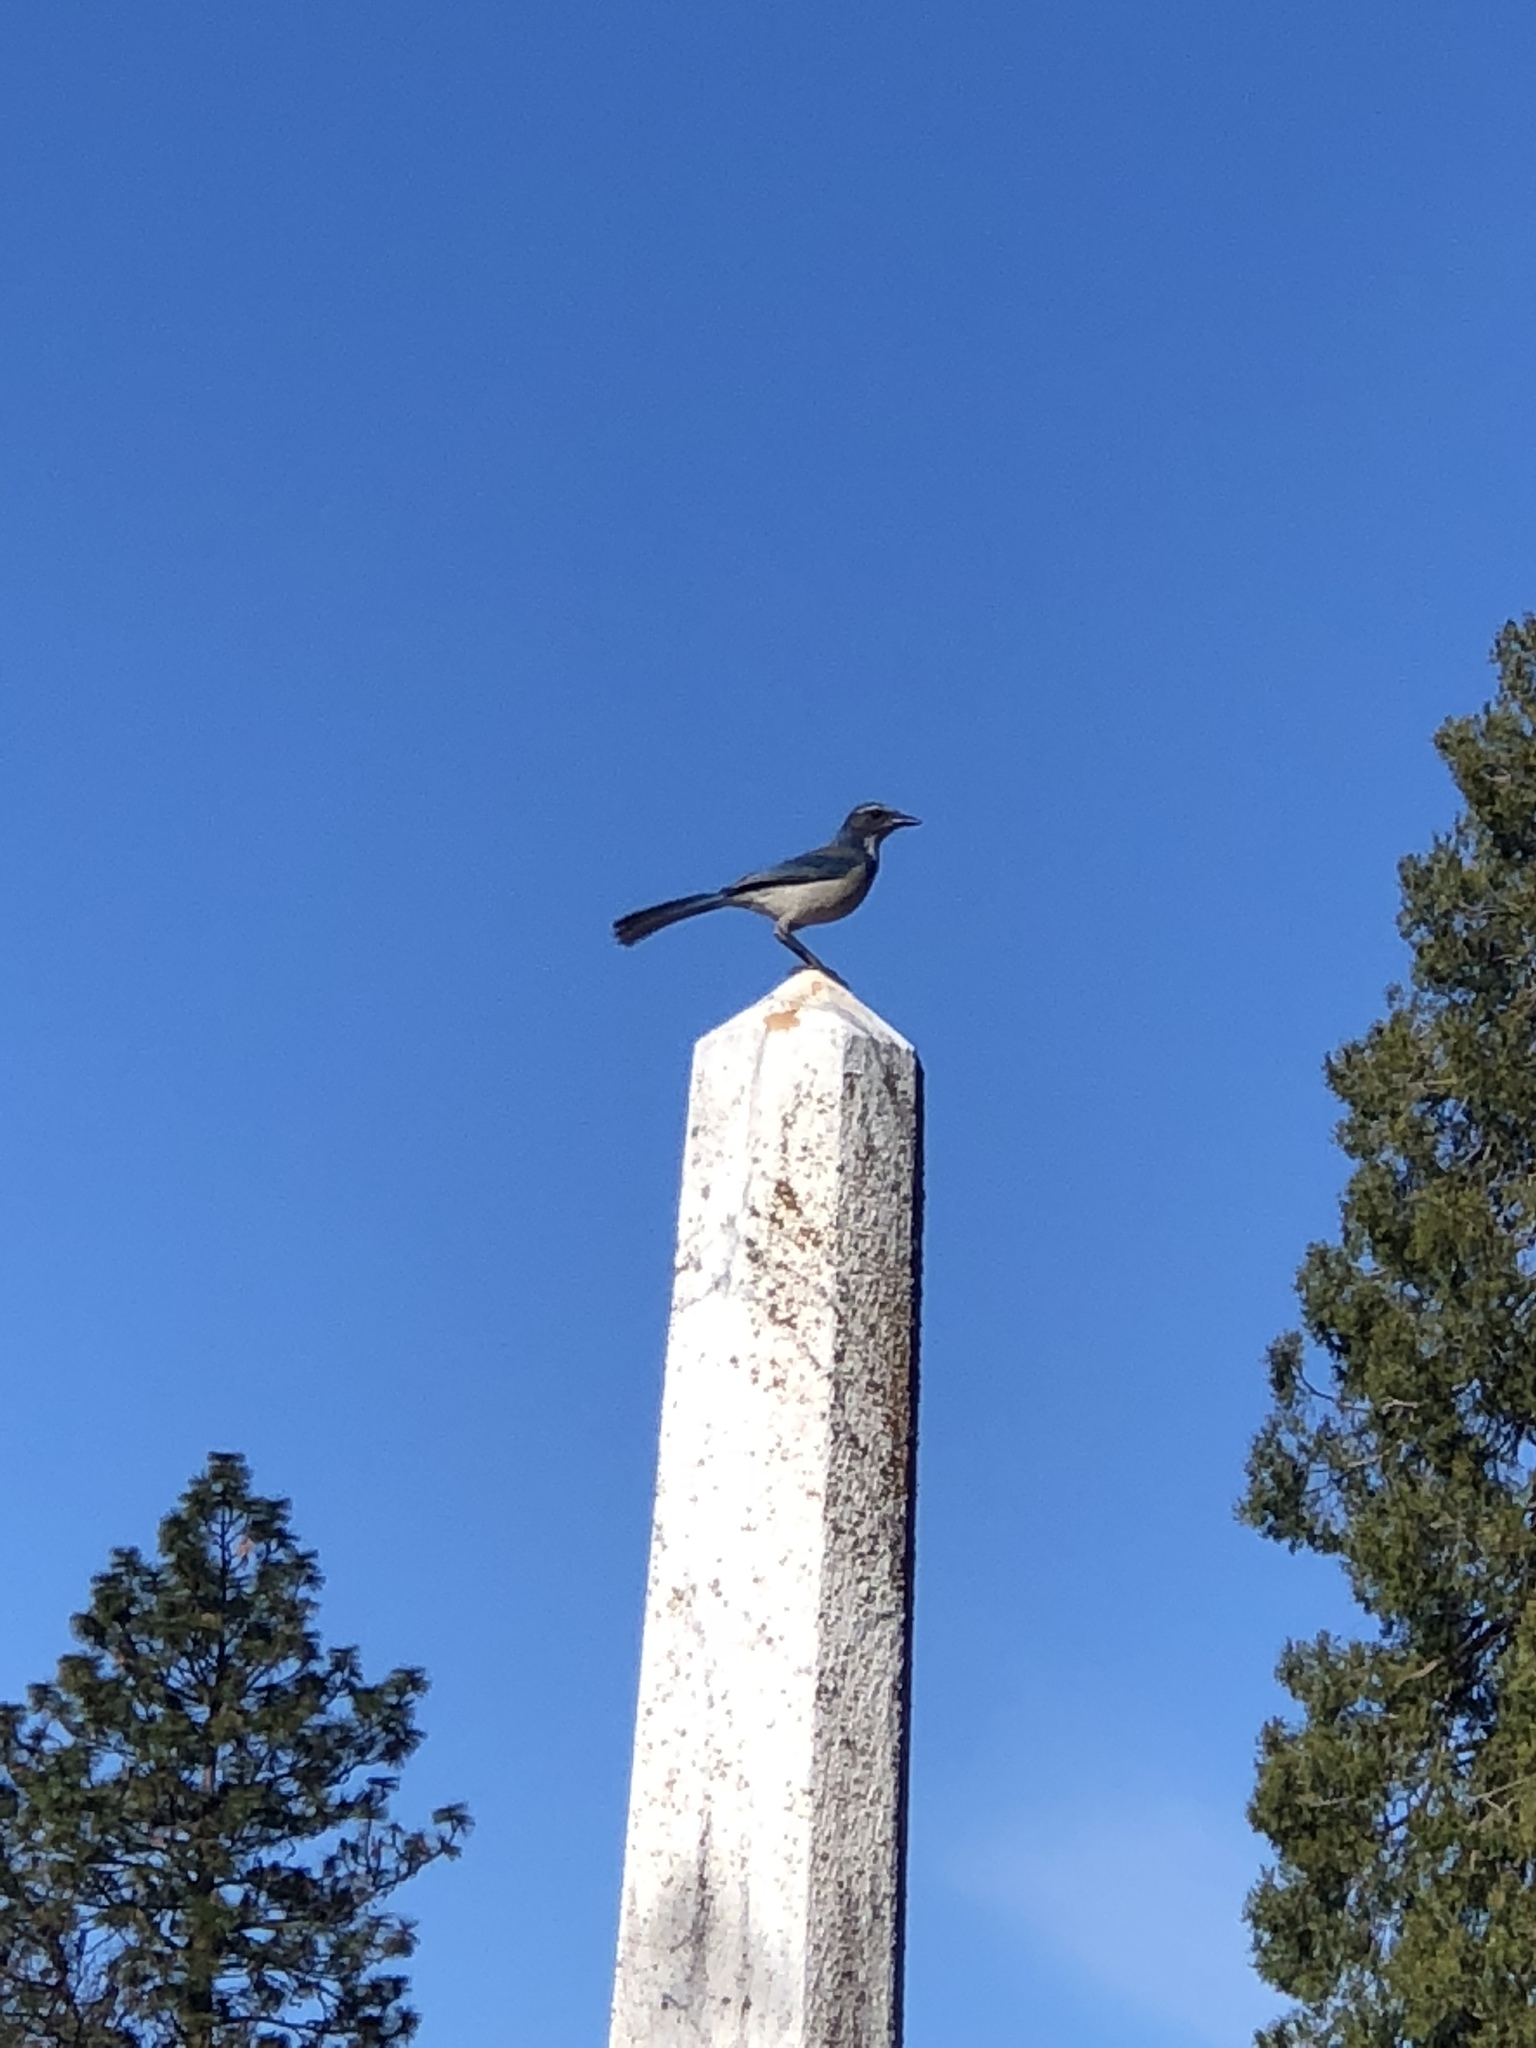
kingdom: Animalia
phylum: Chordata
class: Aves
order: Passeriformes
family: Corvidae
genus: Aphelocoma
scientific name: Aphelocoma californica
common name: California scrub-jay
